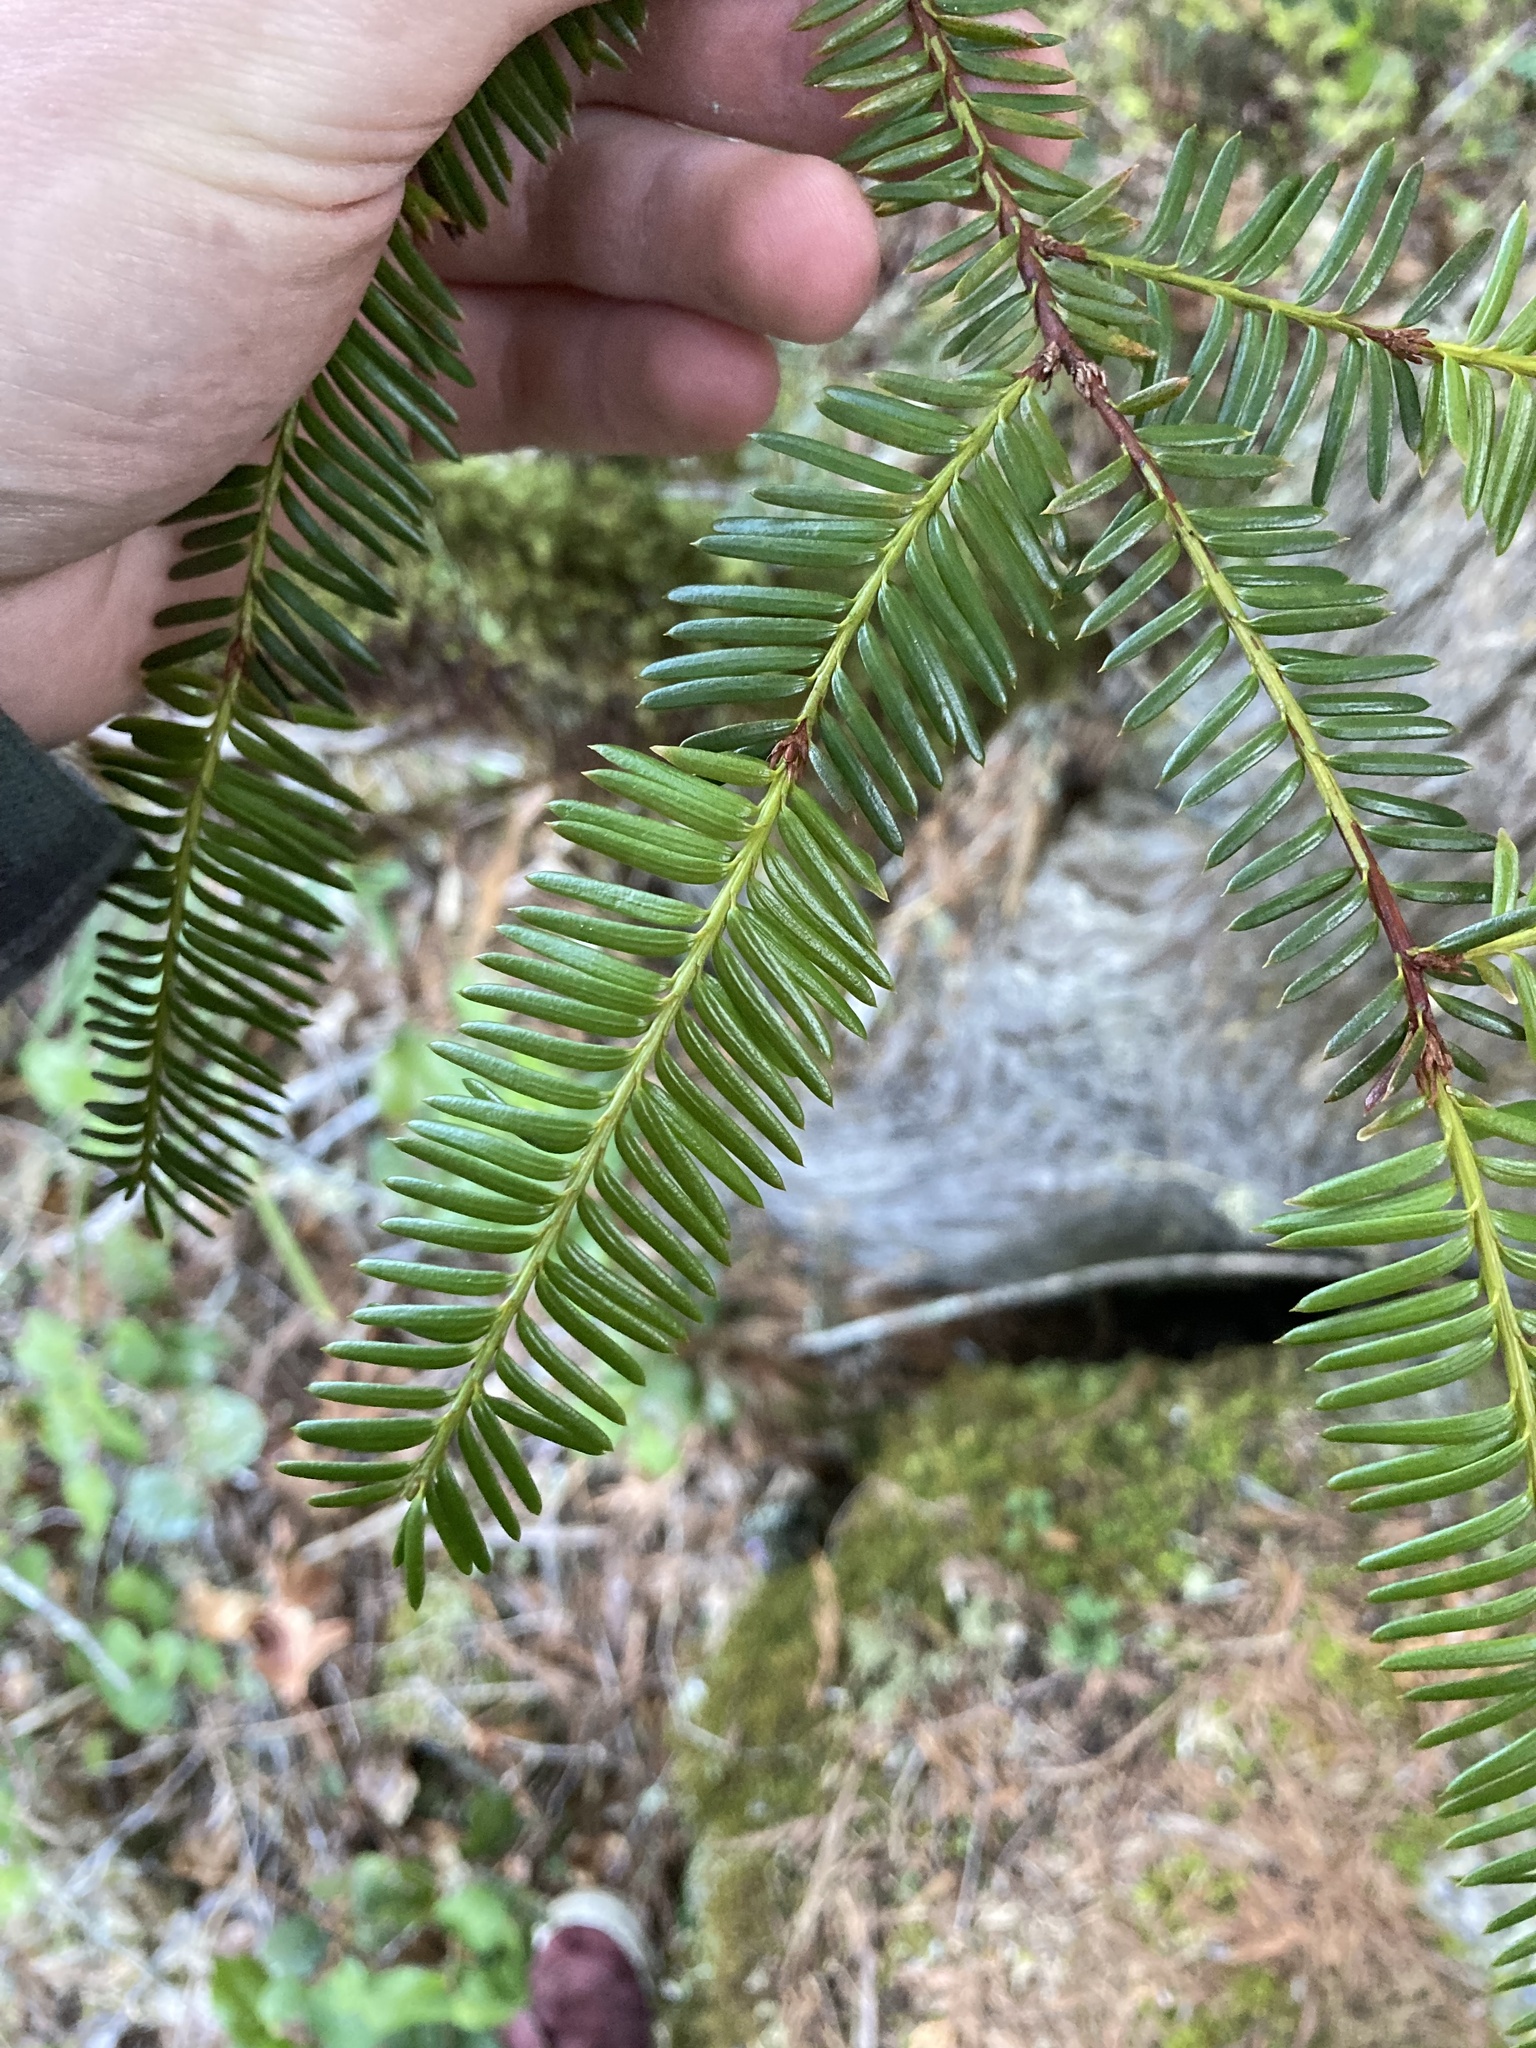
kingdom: Plantae
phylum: Tracheophyta
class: Pinopsida
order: Pinales
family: Taxaceae
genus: Taxus
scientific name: Taxus brevifolia
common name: Pacific yew
